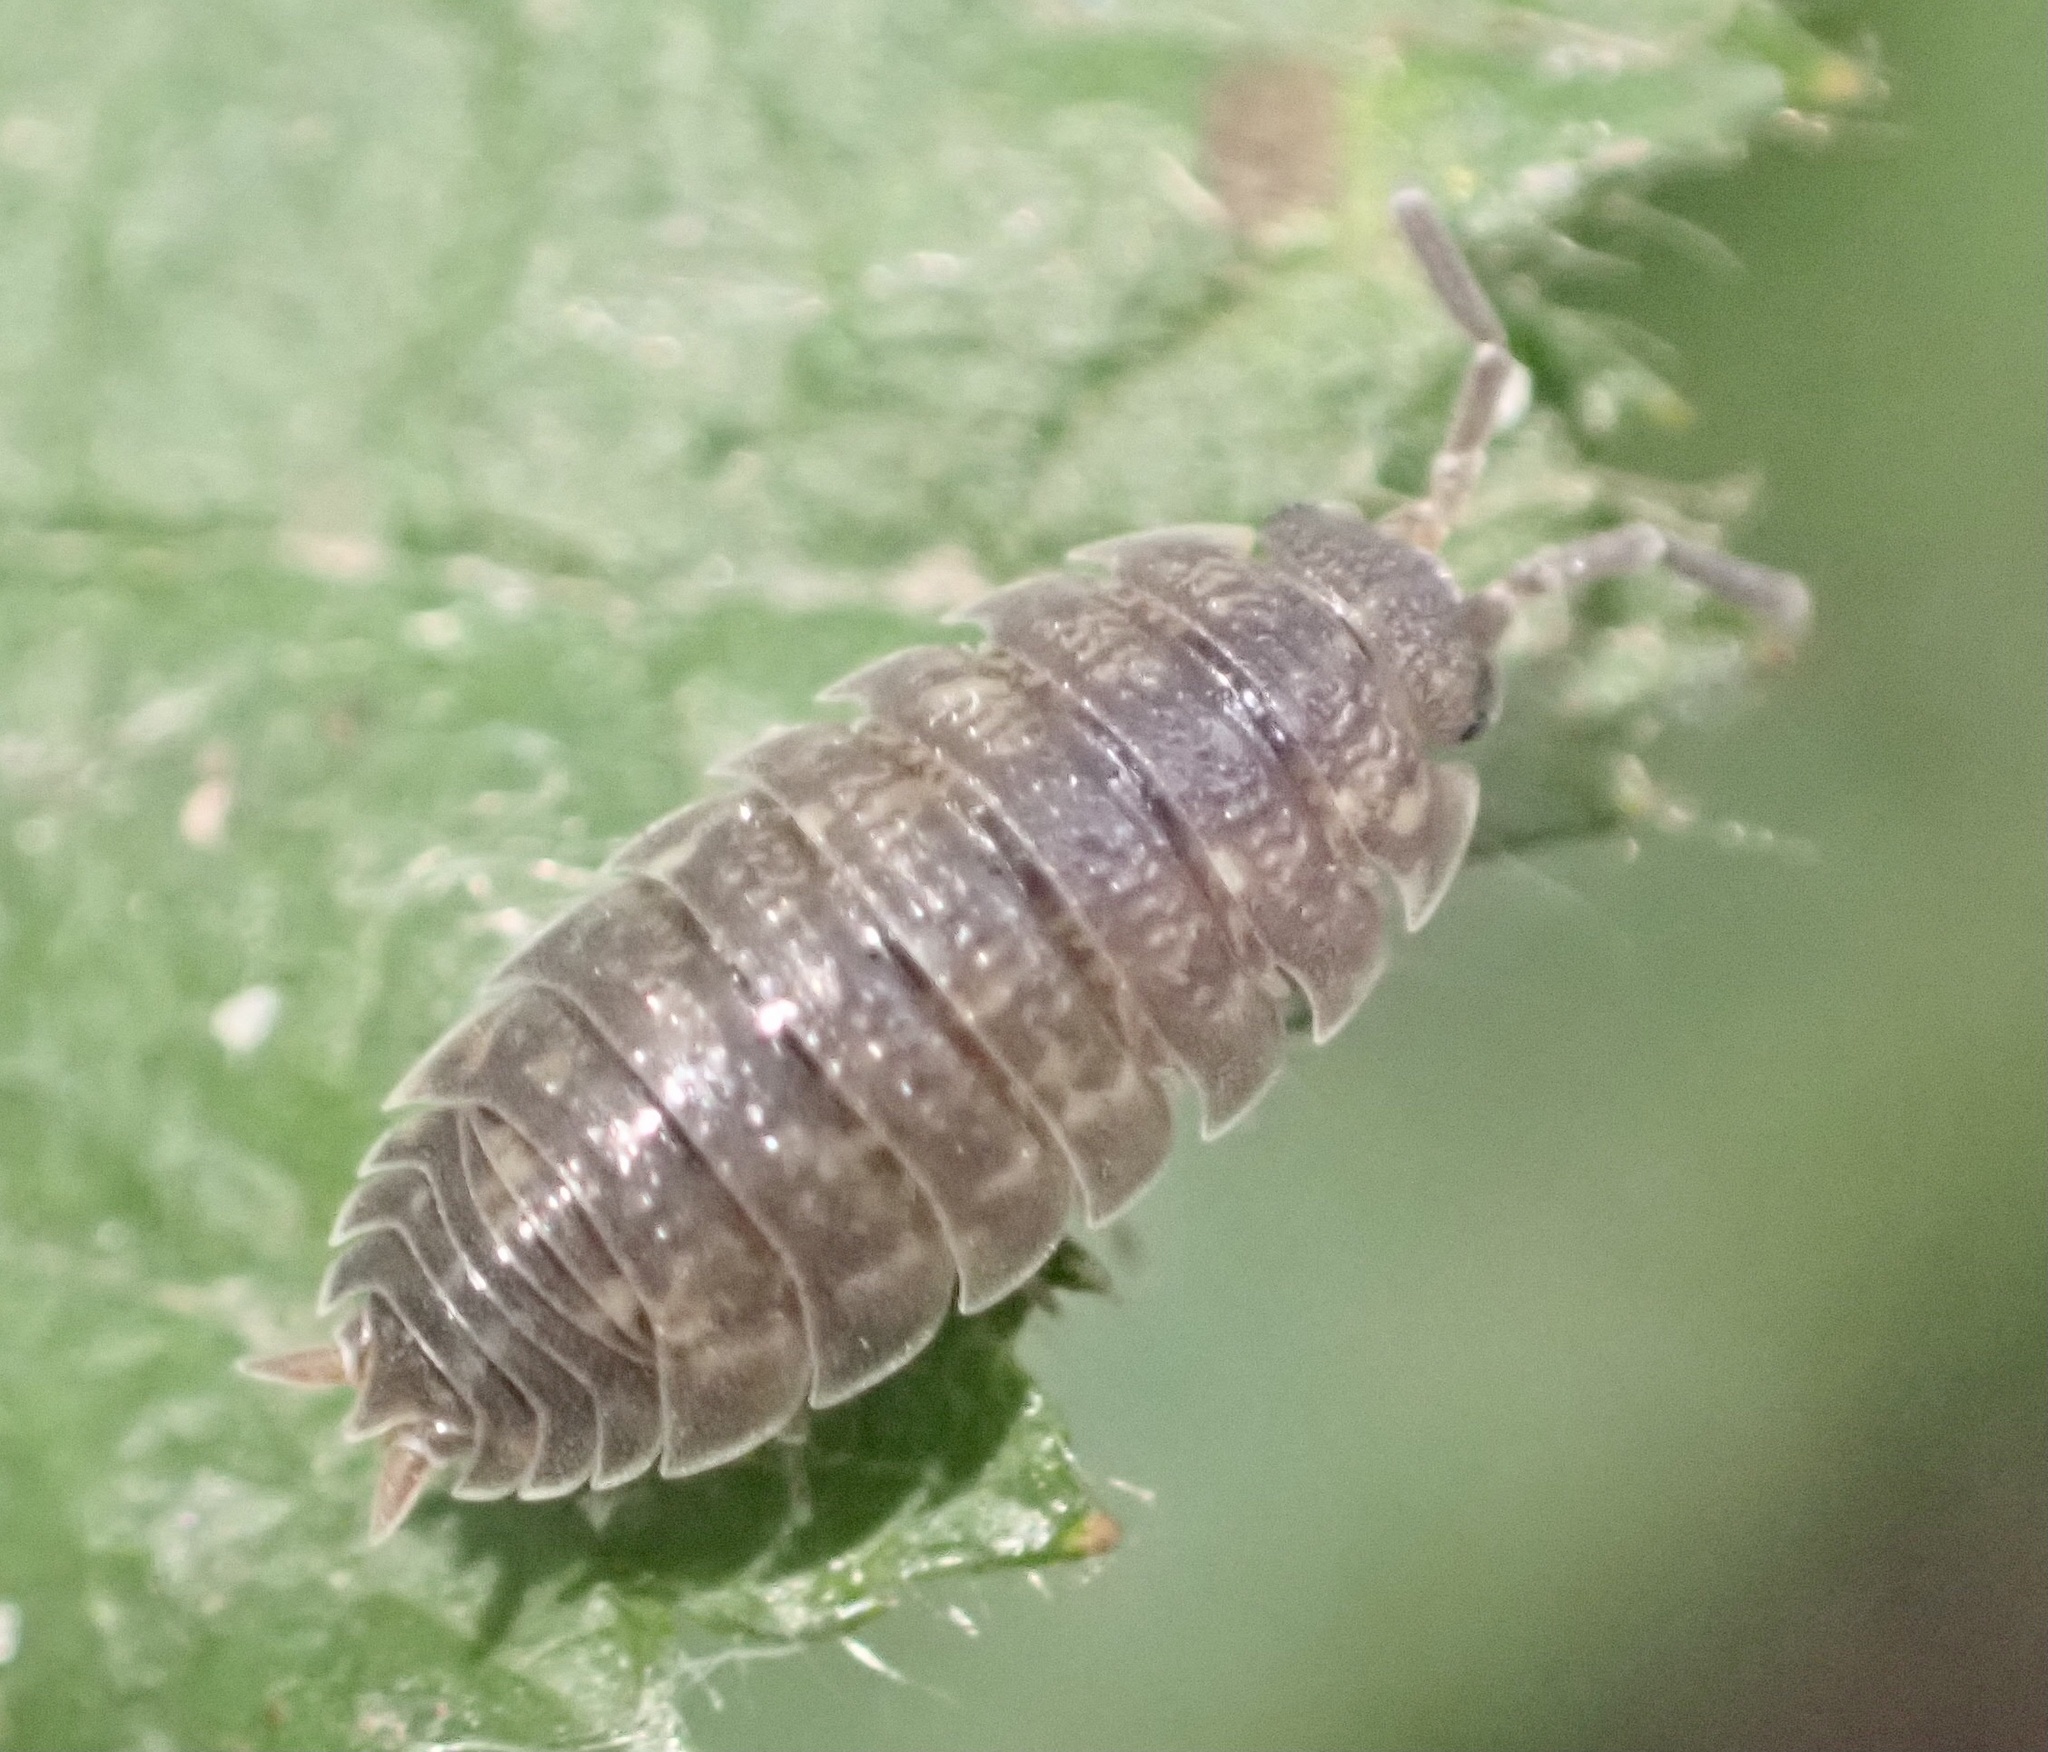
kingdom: Animalia
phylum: Arthropoda
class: Malacostraca
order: Isopoda
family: Porcellionidae
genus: Porcellio
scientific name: Porcellio scaber
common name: Common rough woodlouse
